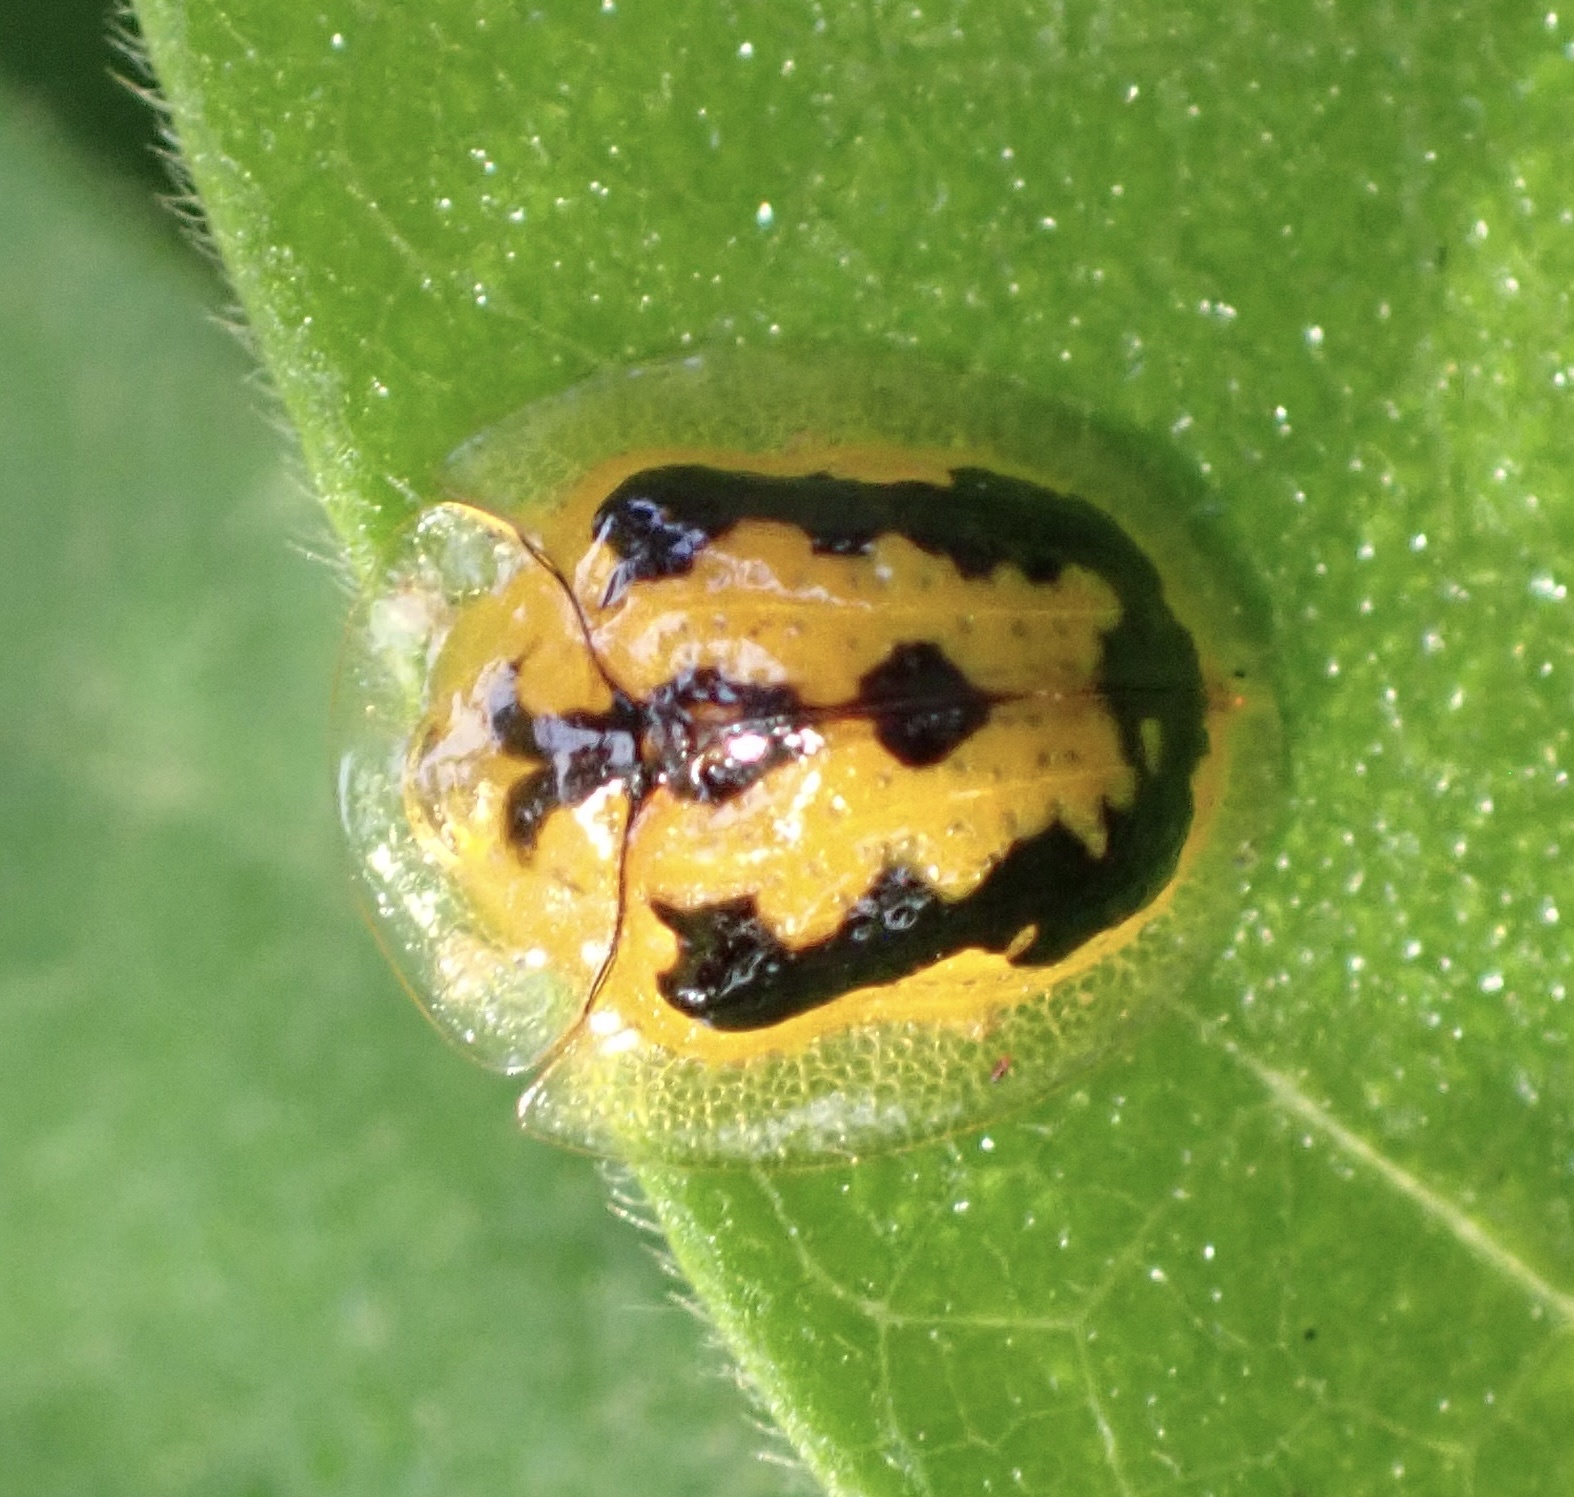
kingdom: Animalia
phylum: Arthropoda
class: Insecta
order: Coleoptera
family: Chrysomelidae
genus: Cassida
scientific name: Cassida papuana
